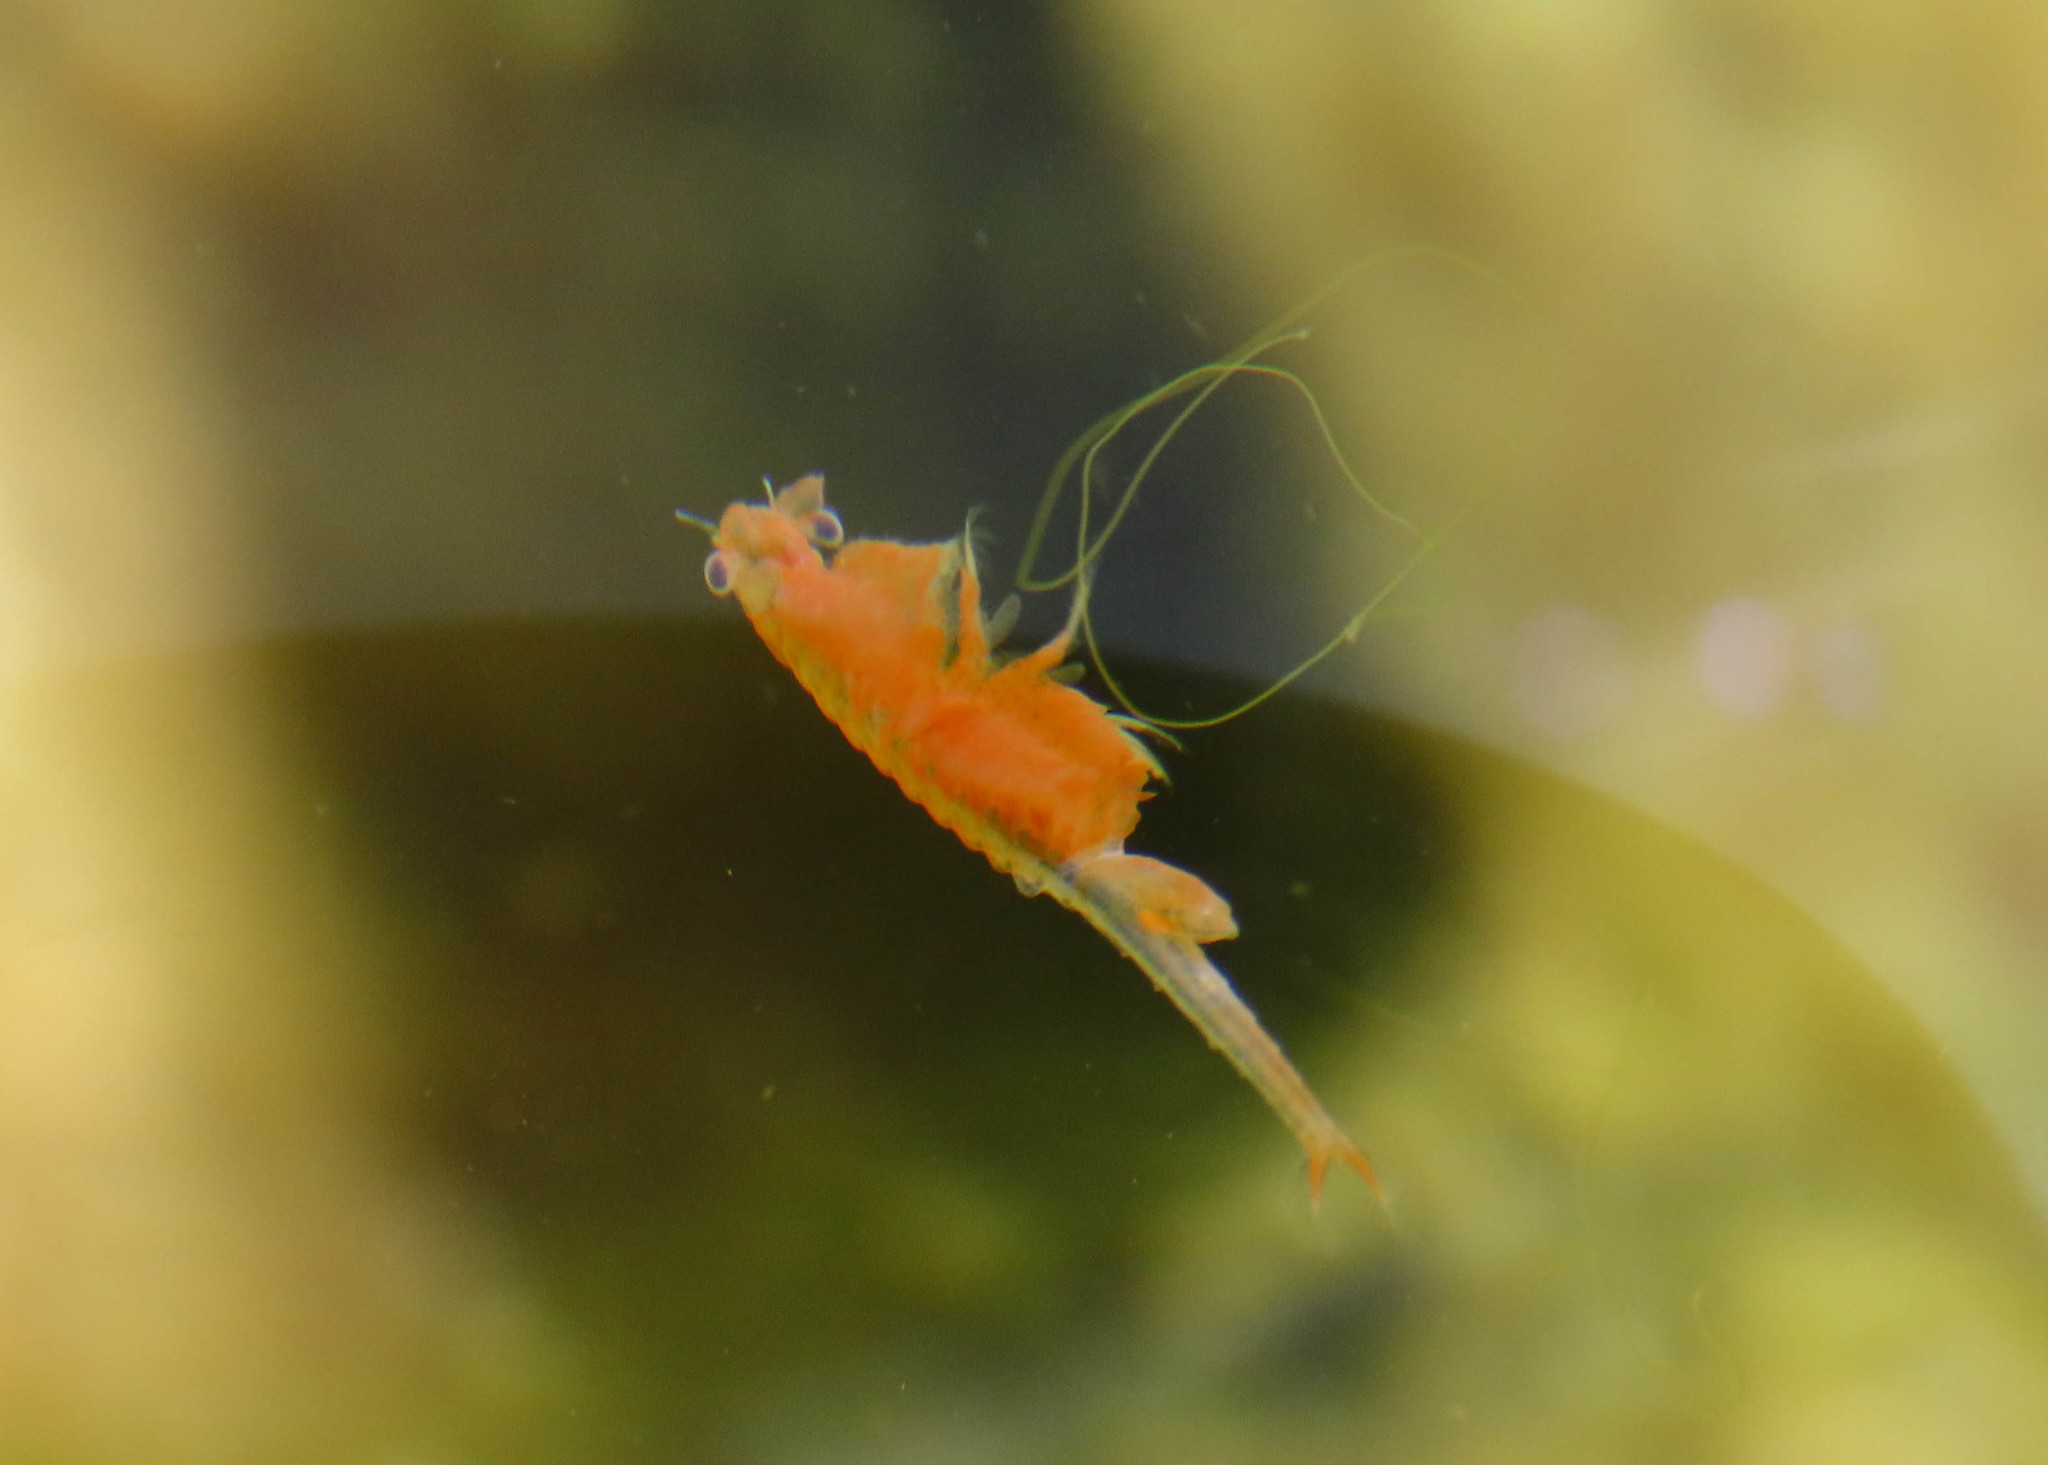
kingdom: Animalia
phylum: Arthropoda
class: Branchiopoda
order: Anostraca
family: Chirocephalidae
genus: Chirocephalus
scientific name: Chirocephalus marchesonii
